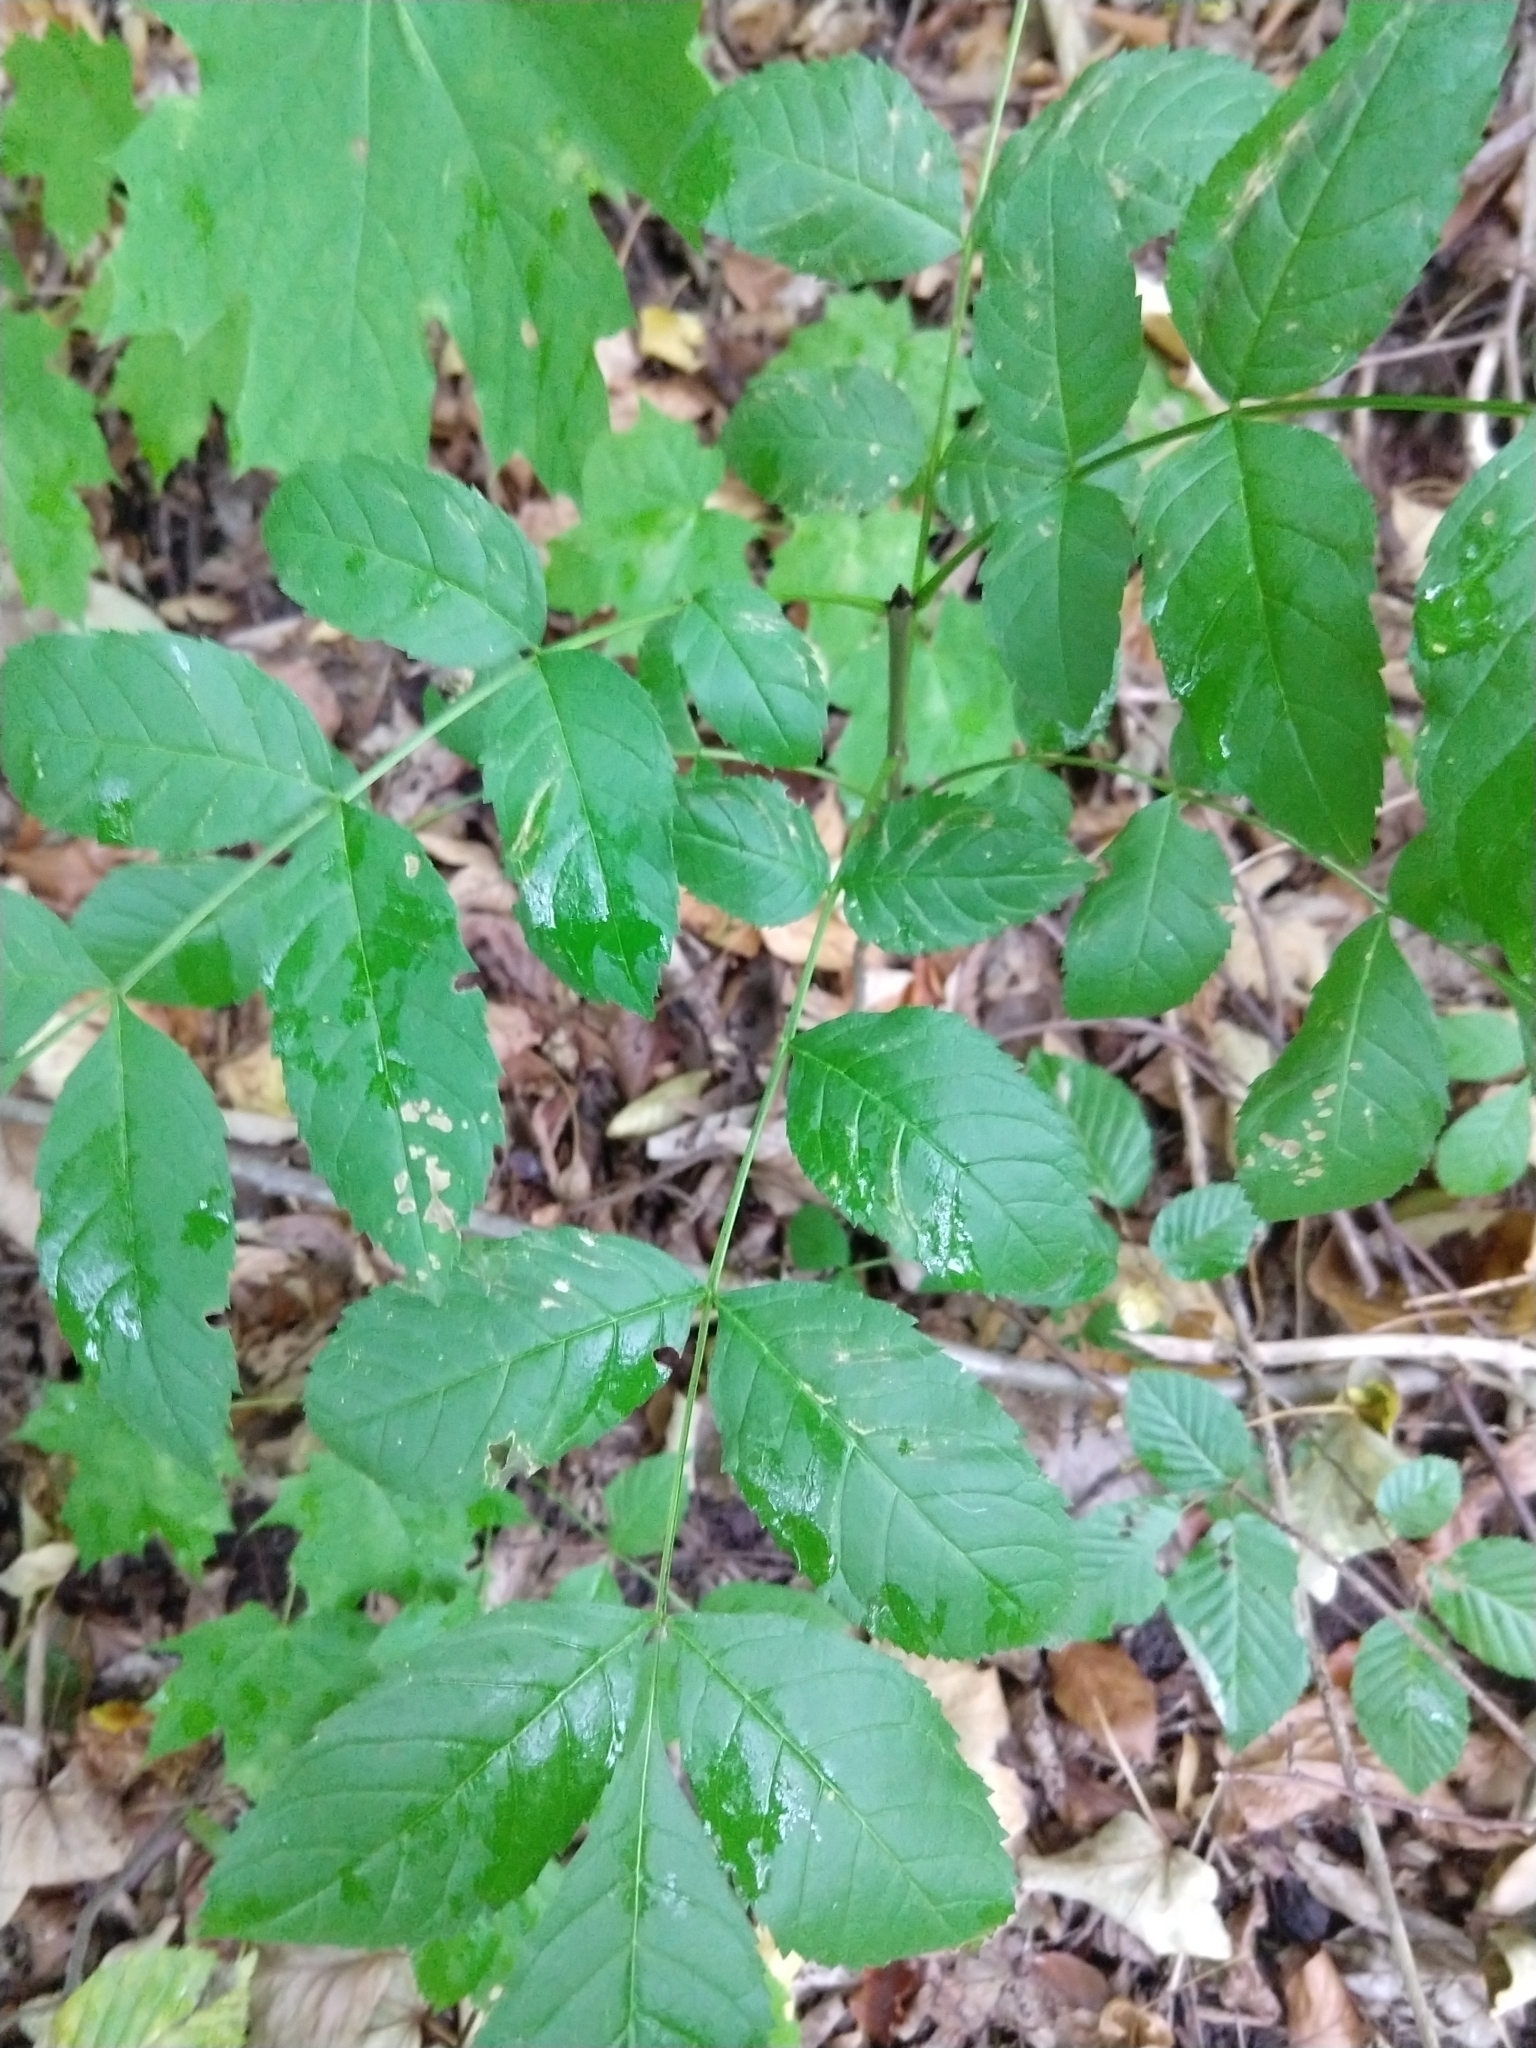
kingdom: Plantae
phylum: Tracheophyta
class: Magnoliopsida
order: Lamiales
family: Oleaceae
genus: Fraxinus
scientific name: Fraxinus excelsior
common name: European ash
